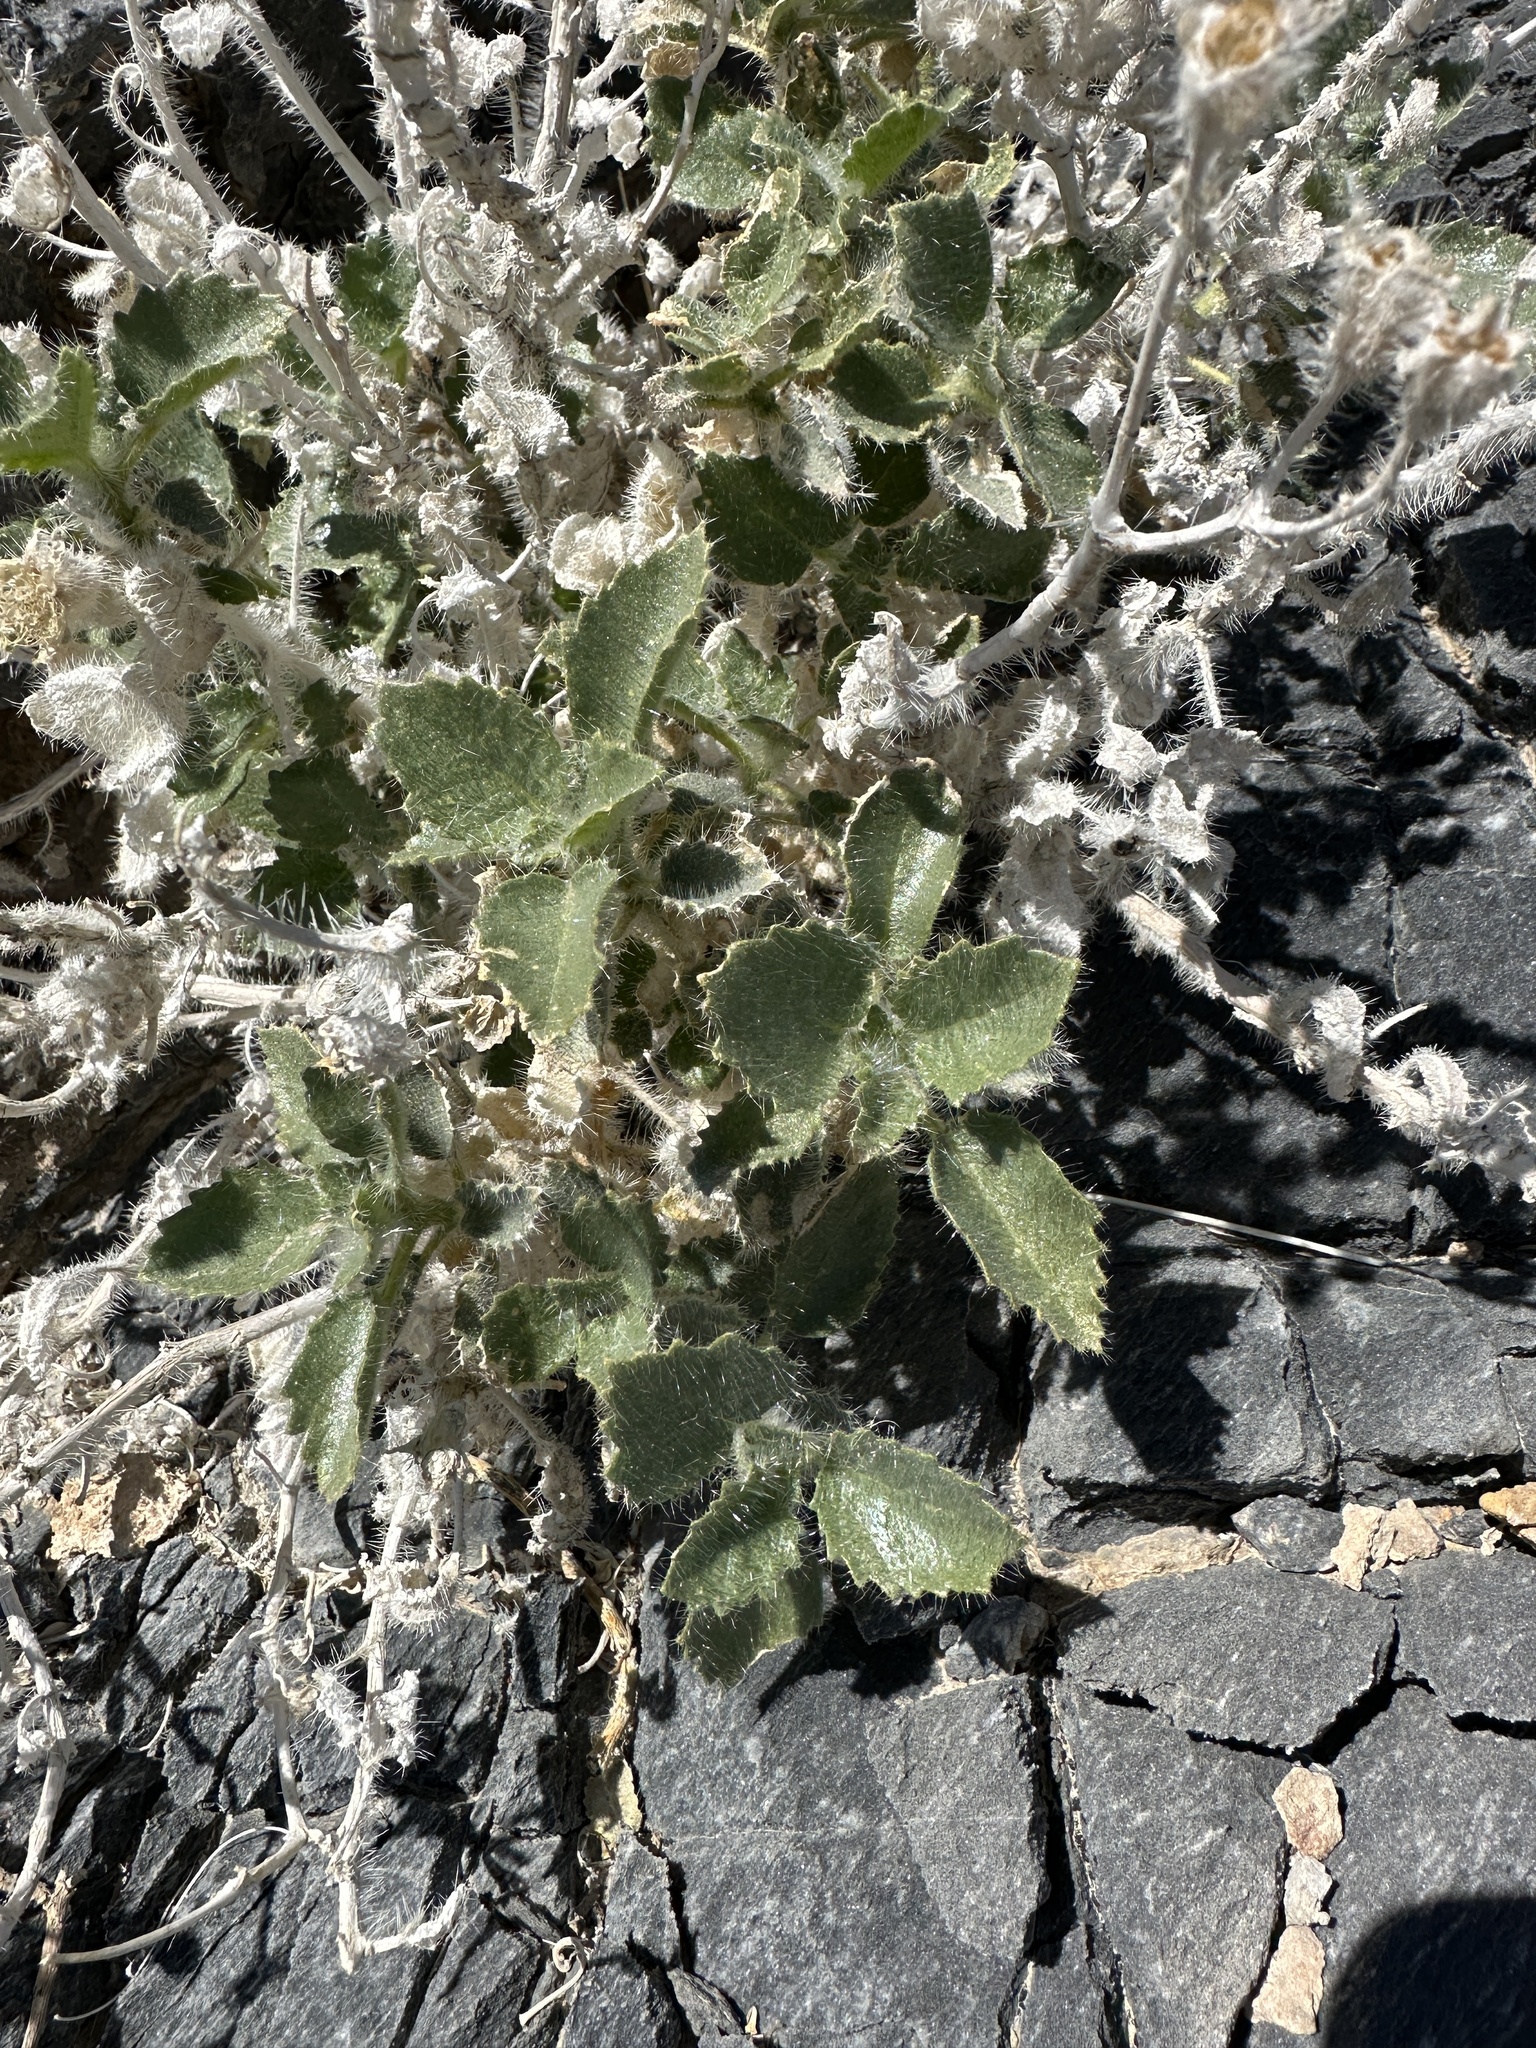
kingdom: Plantae
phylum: Tracheophyta
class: Magnoliopsida
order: Cornales
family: Loasaceae
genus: Eucnide
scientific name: Eucnide urens
